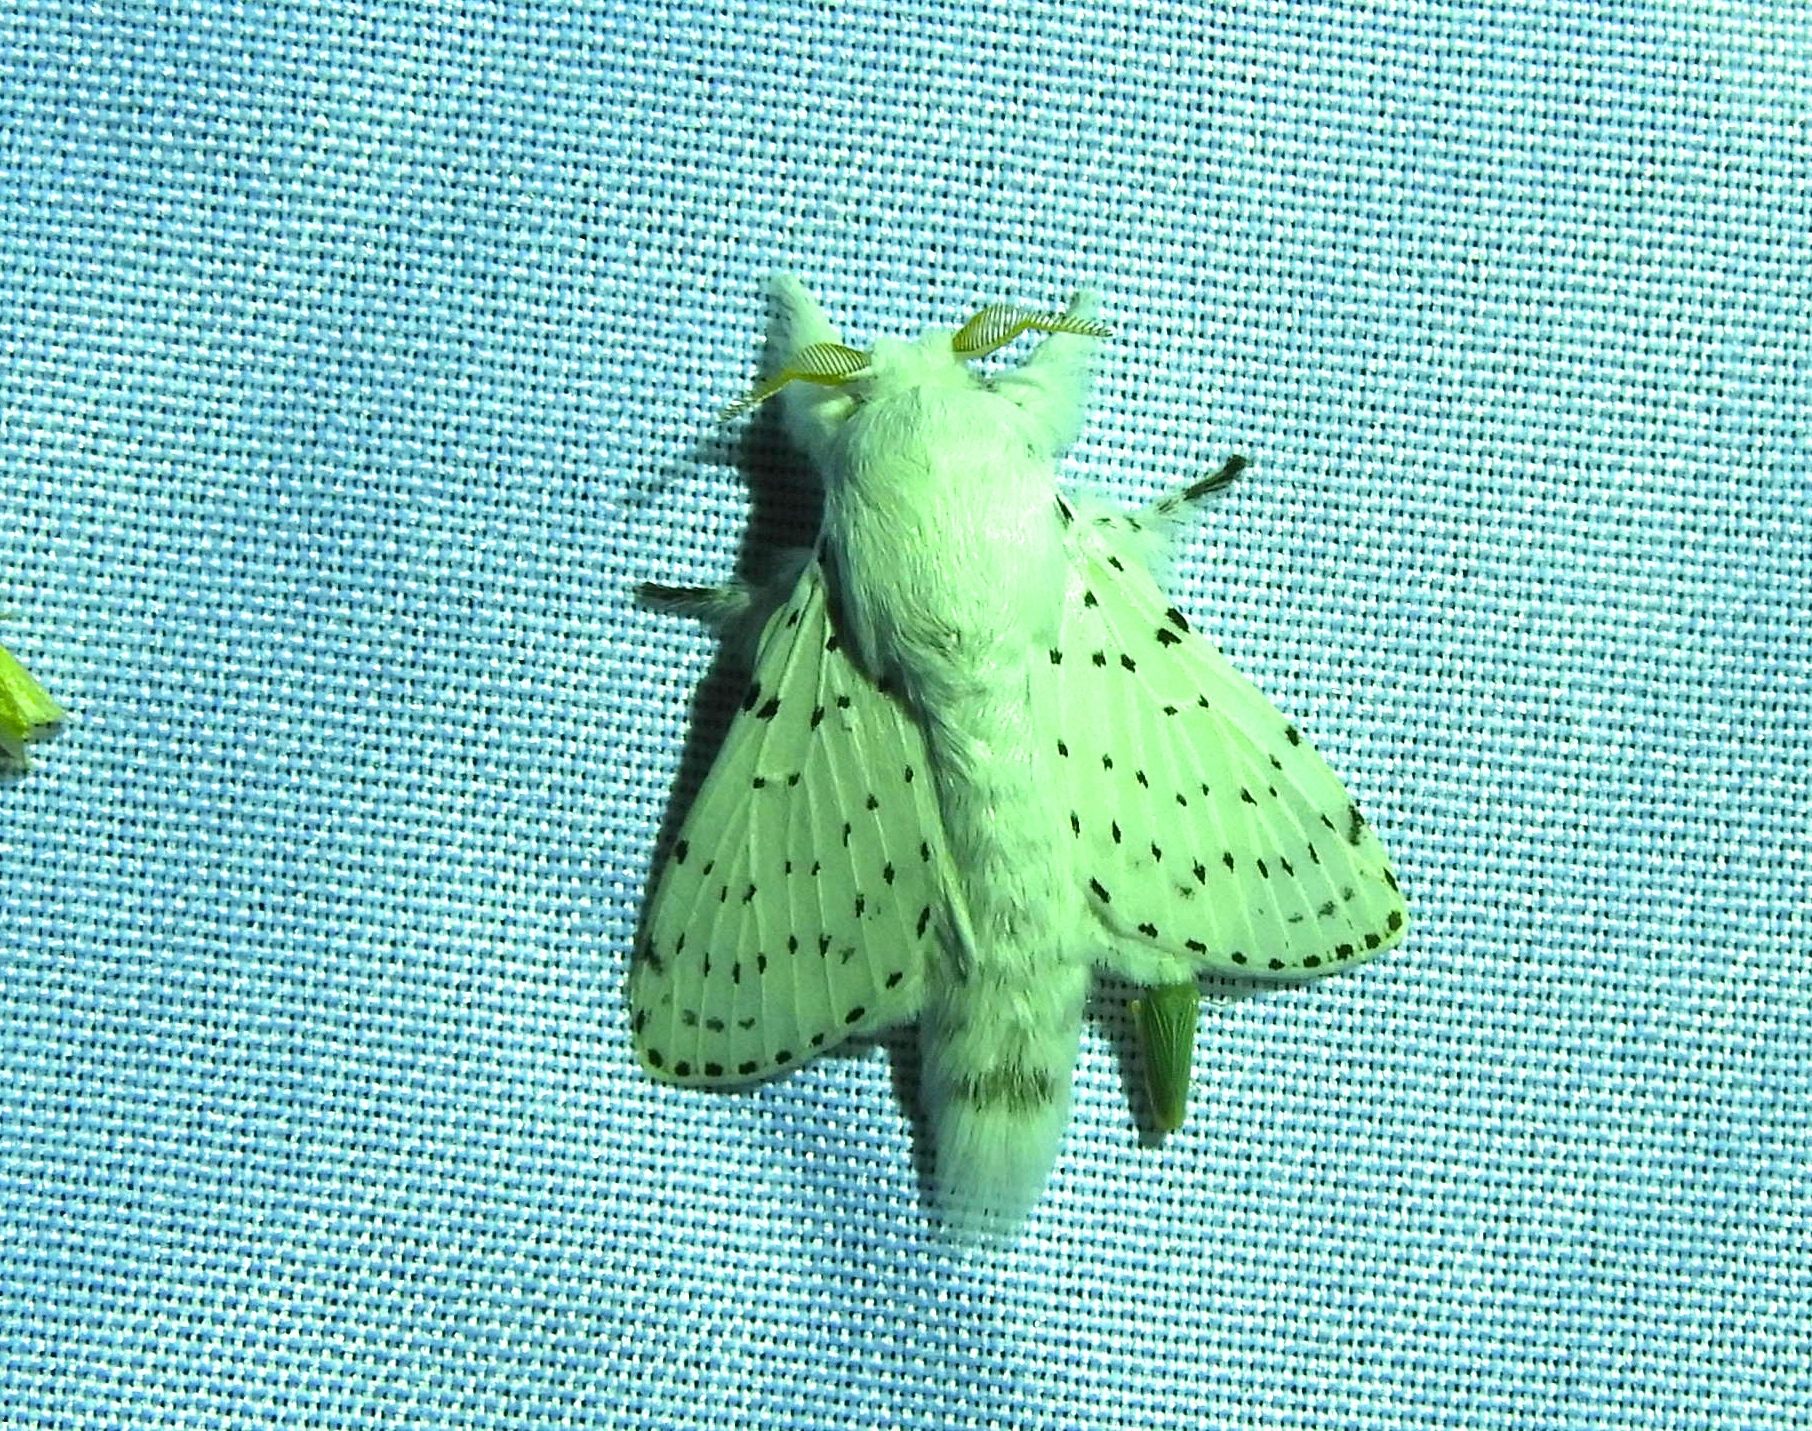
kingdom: Animalia
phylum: Arthropoda
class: Insecta
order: Lepidoptera
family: Lasiocampidae
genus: Artace
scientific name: Artace
